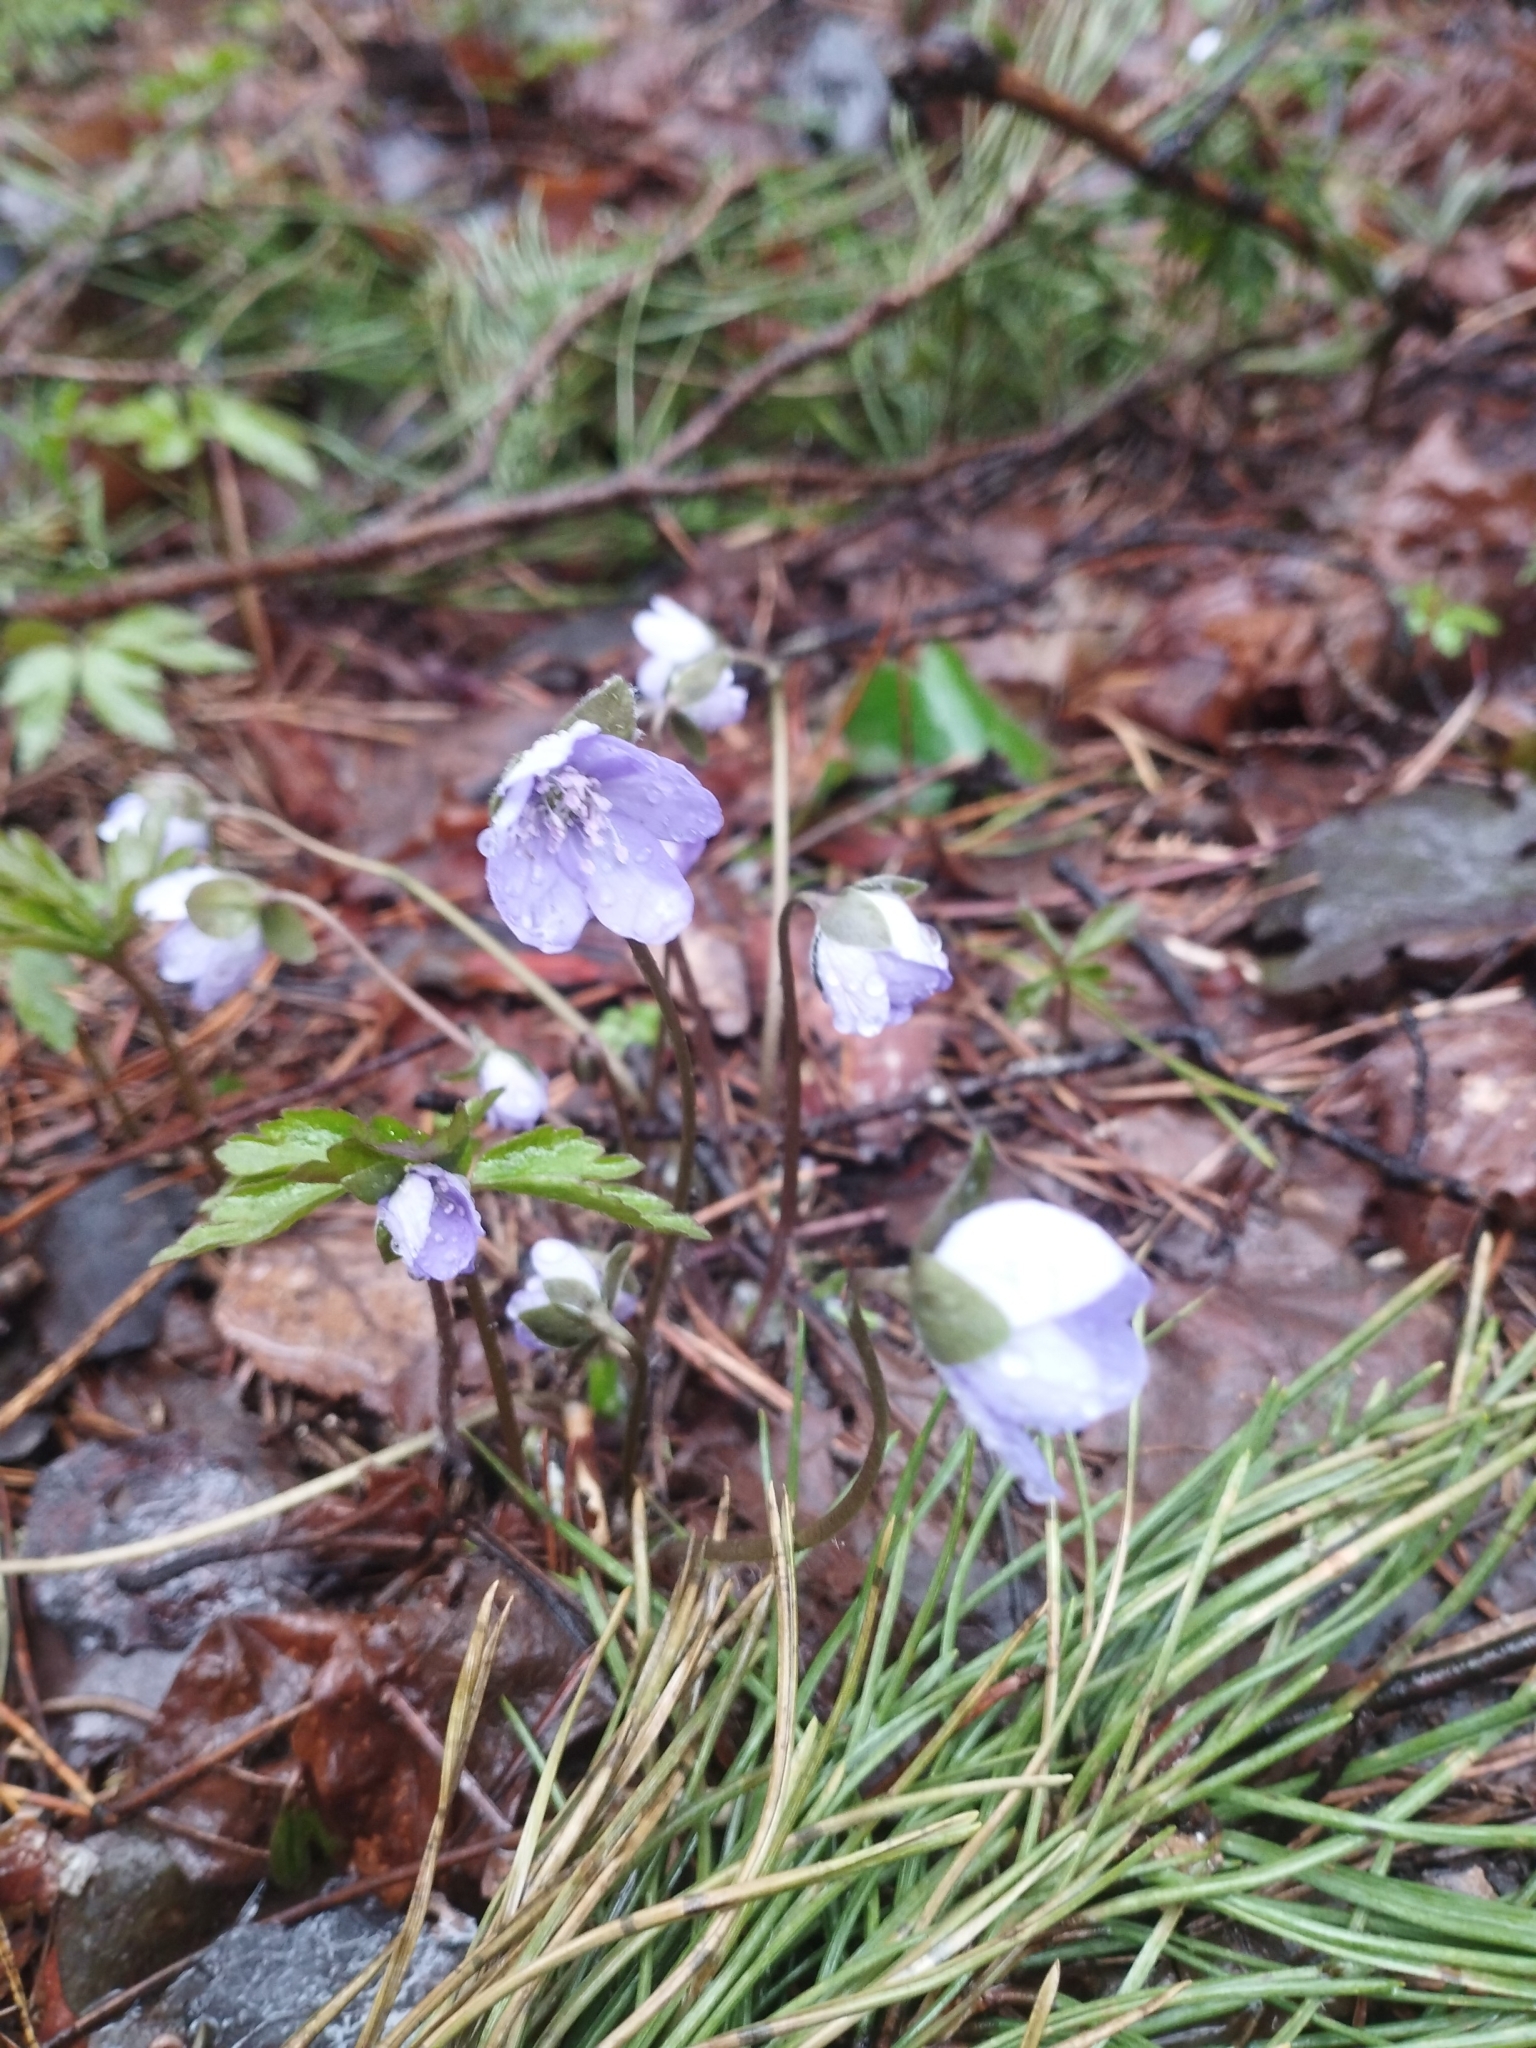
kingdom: Plantae
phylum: Tracheophyta
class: Magnoliopsida
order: Ranunculales
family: Ranunculaceae
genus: Hepatica
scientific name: Hepatica nobilis
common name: Liverleaf
